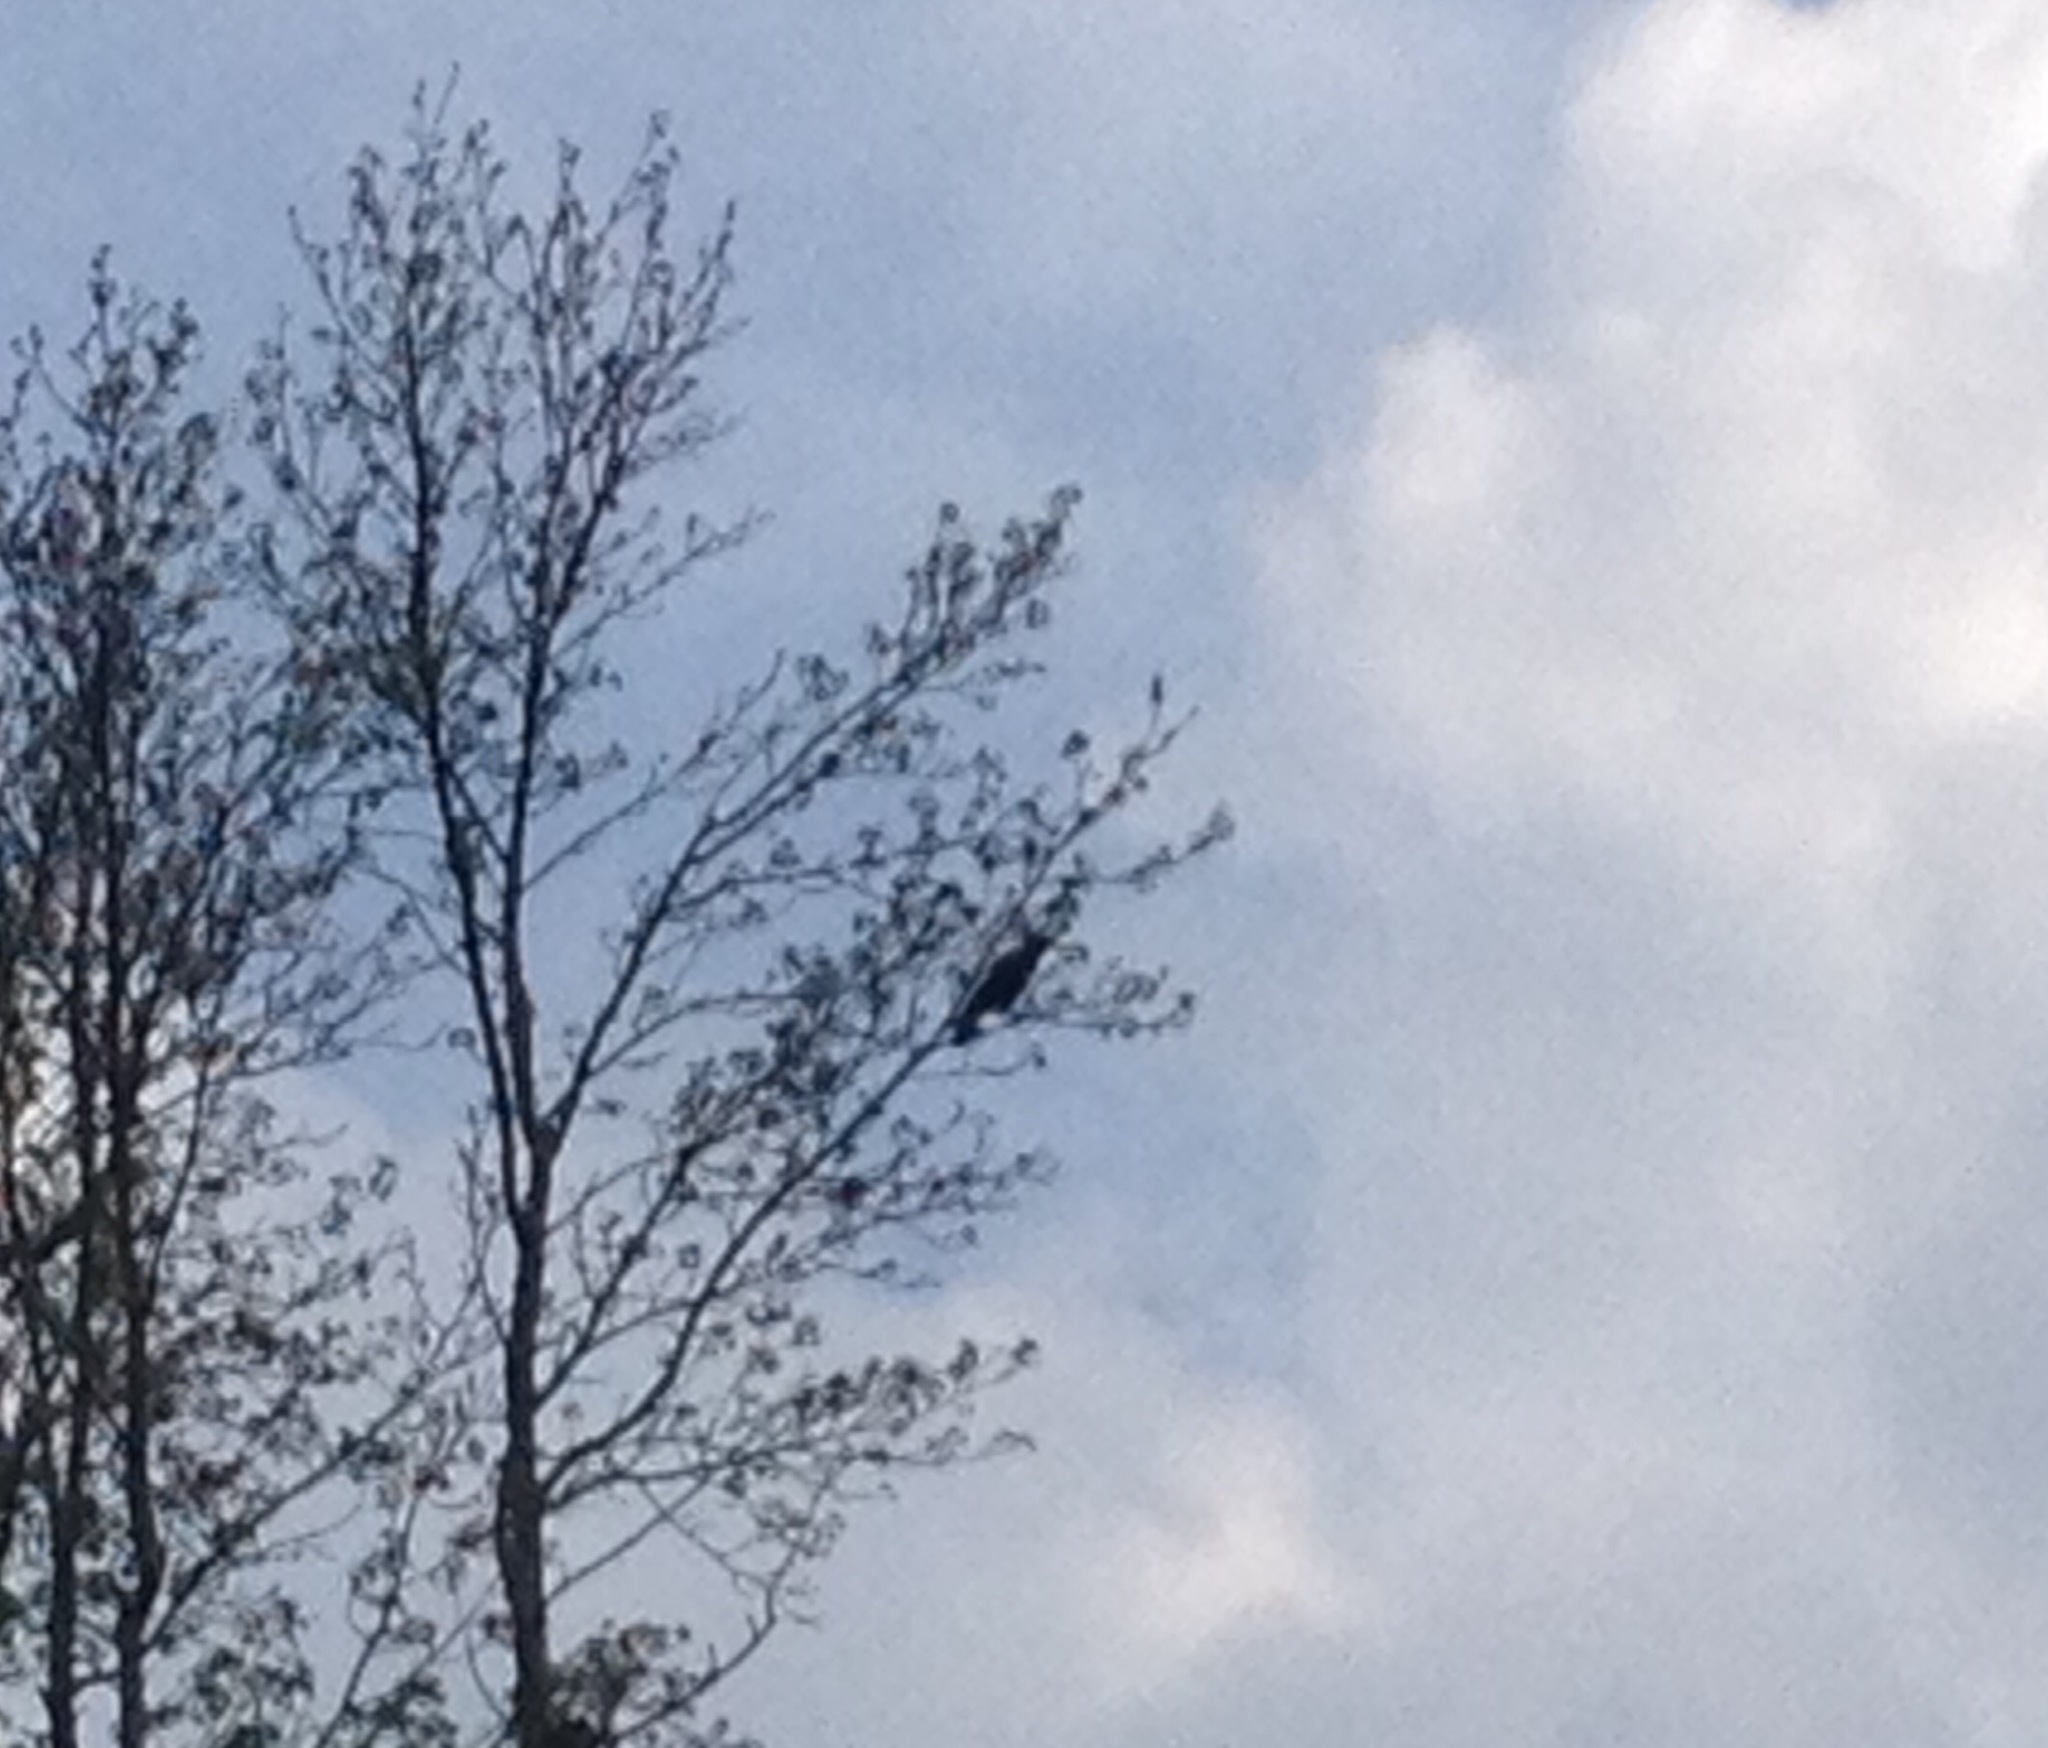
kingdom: Animalia
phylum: Chordata
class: Aves
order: Passeriformes
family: Corvidae
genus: Corvus
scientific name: Corvus ossifragus
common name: Fish crow
